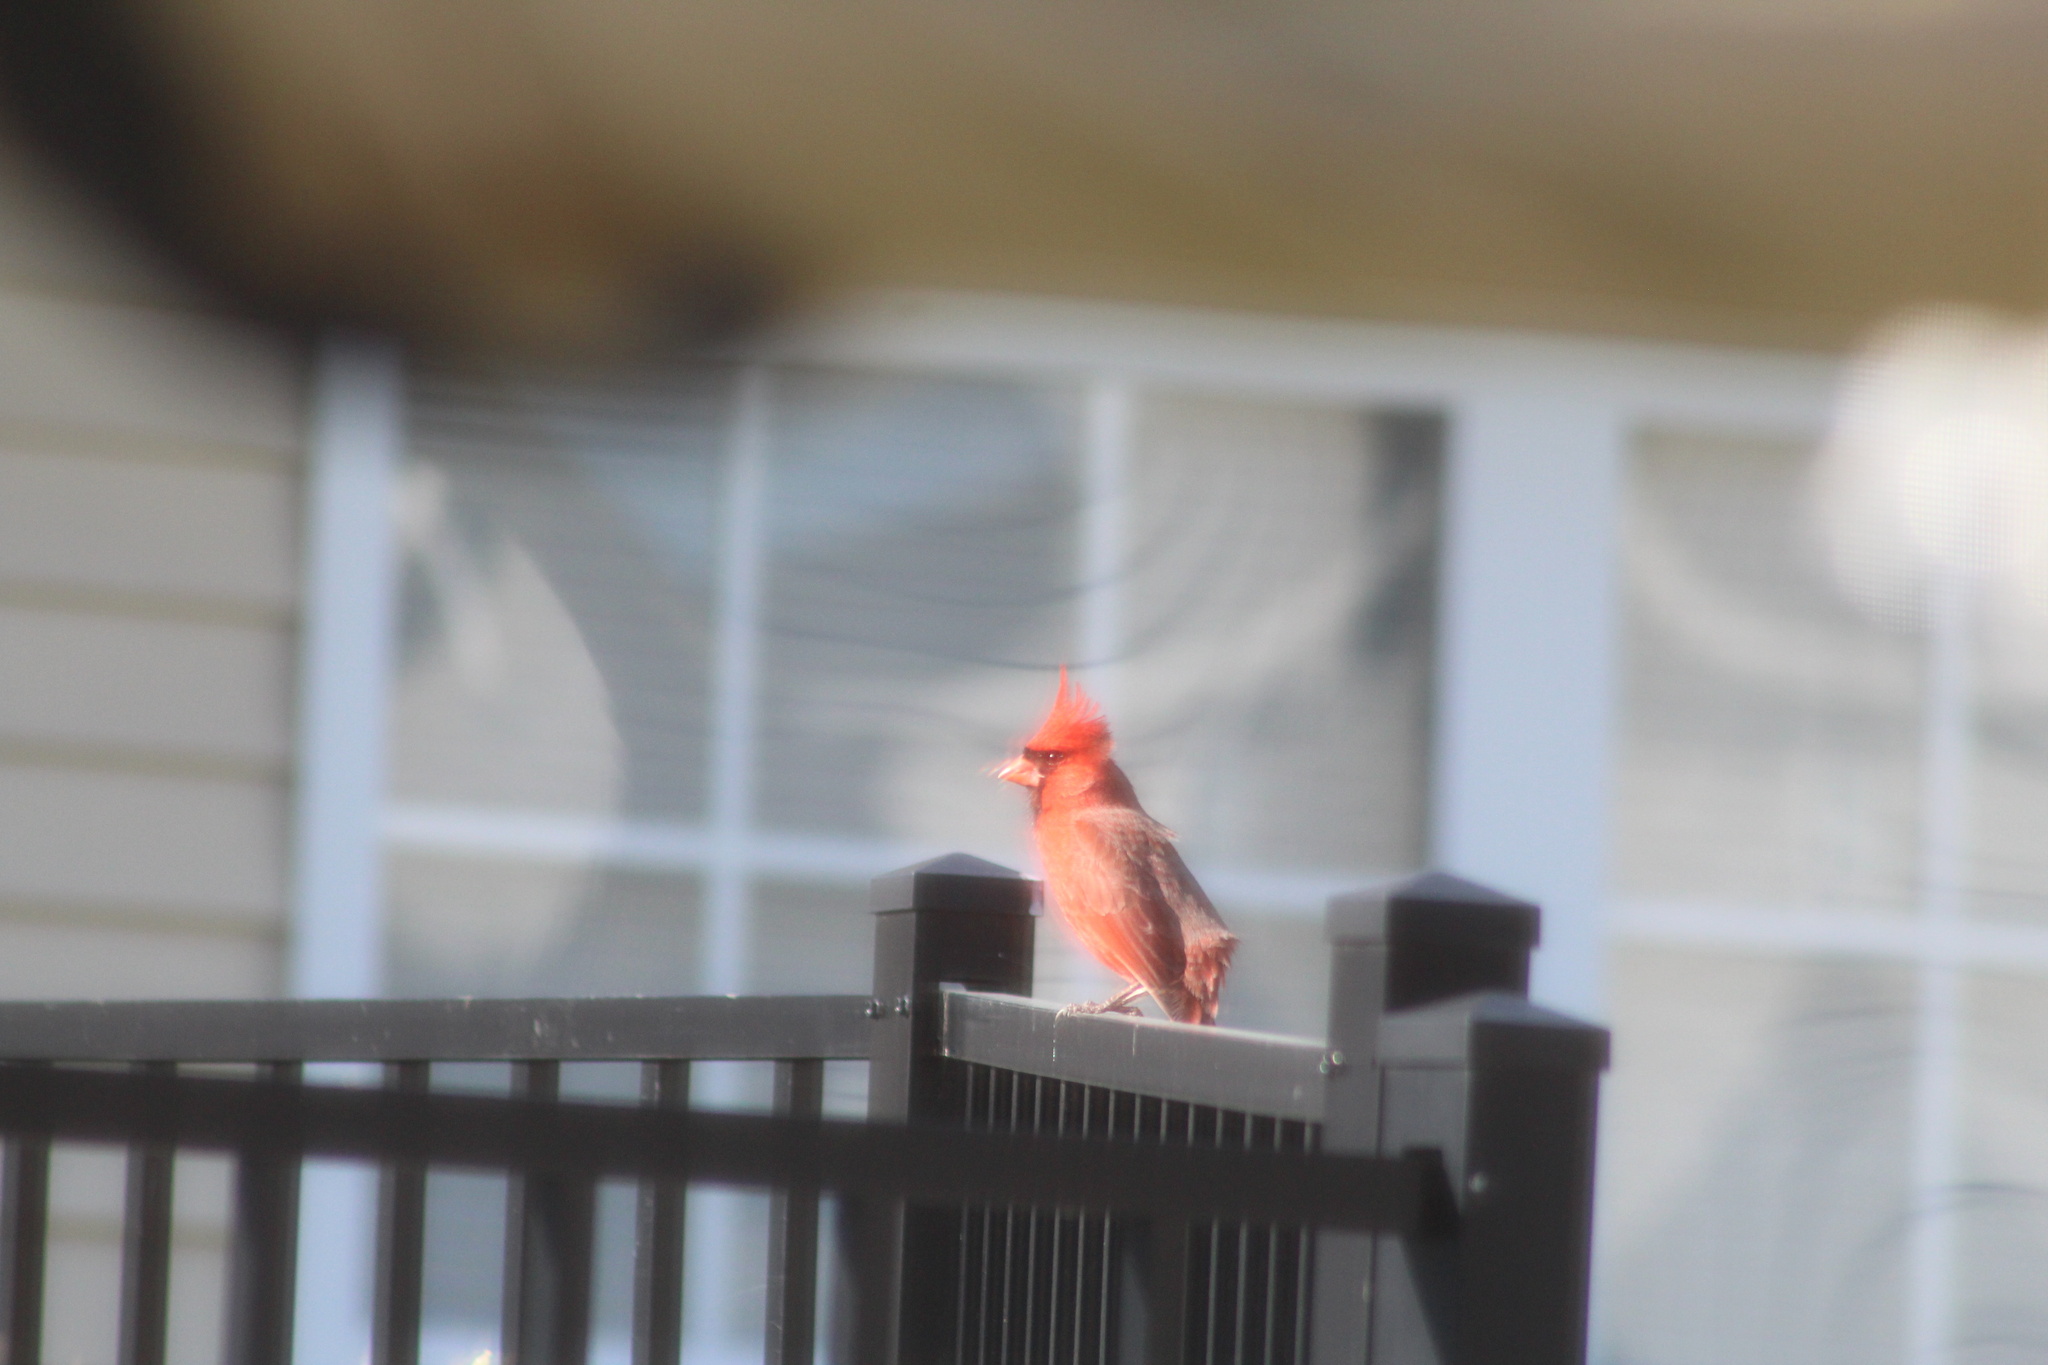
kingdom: Animalia
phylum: Chordata
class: Aves
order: Passeriformes
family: Cardinalidae
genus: Cardinalis
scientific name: Cardinalis cardinalis
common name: Northern cardinal
